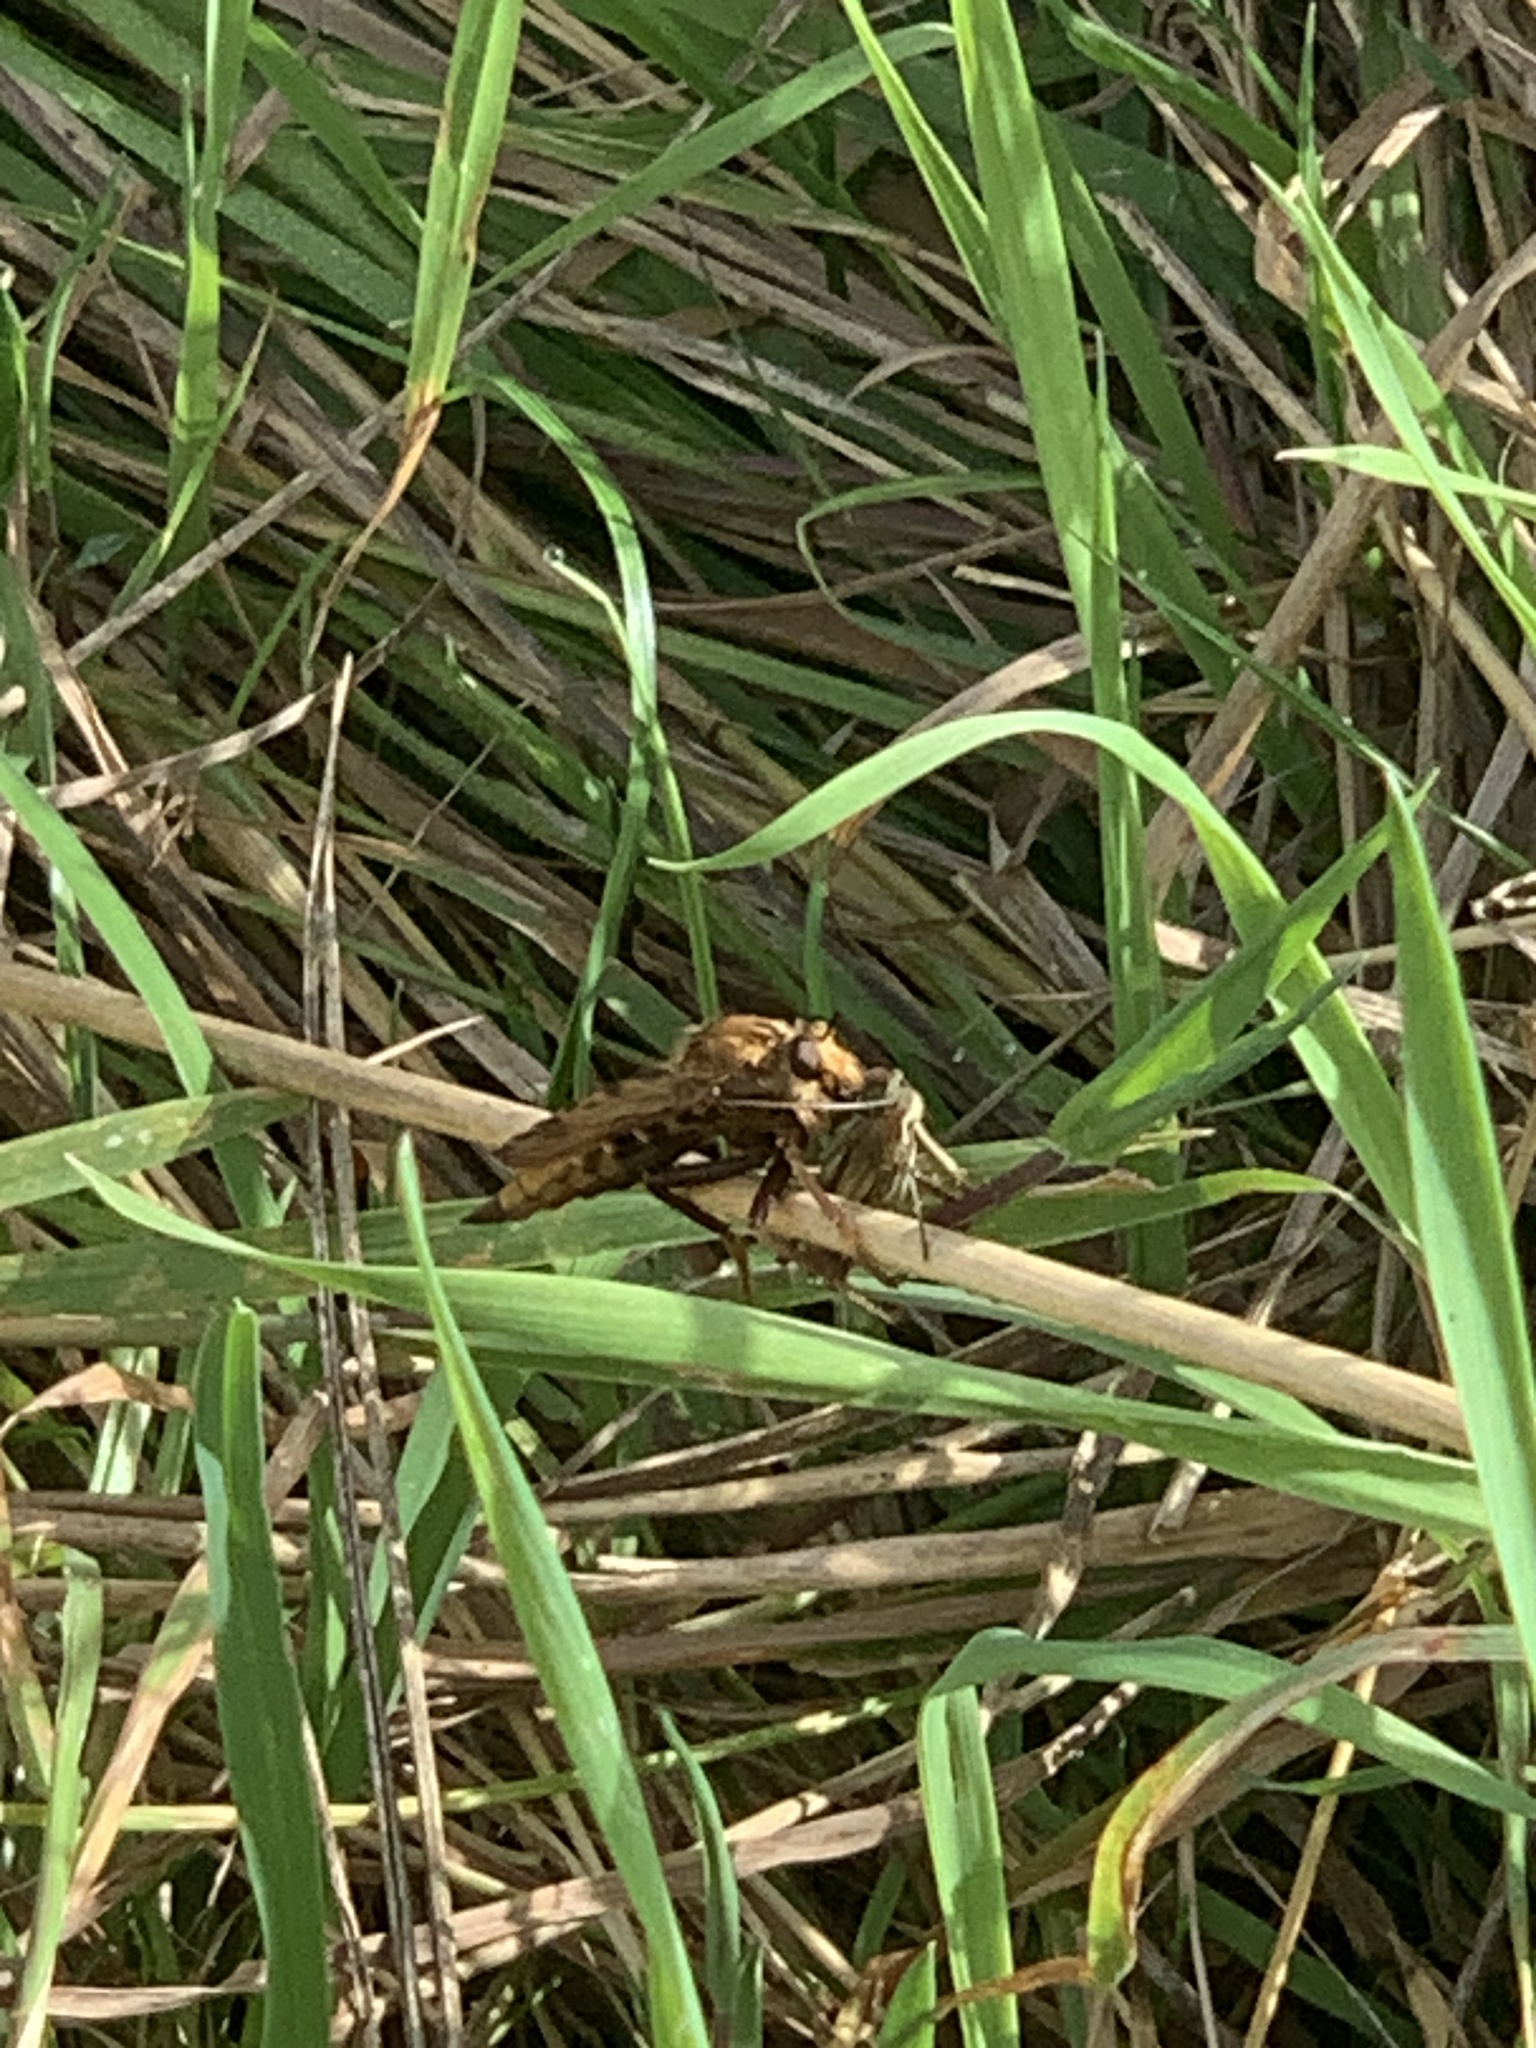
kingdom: Animalia
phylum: Arthropoda
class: Insecta
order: Diptera
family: Asilidae
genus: Asilus
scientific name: Asilus crabroniformis
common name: Hornet robberfly
